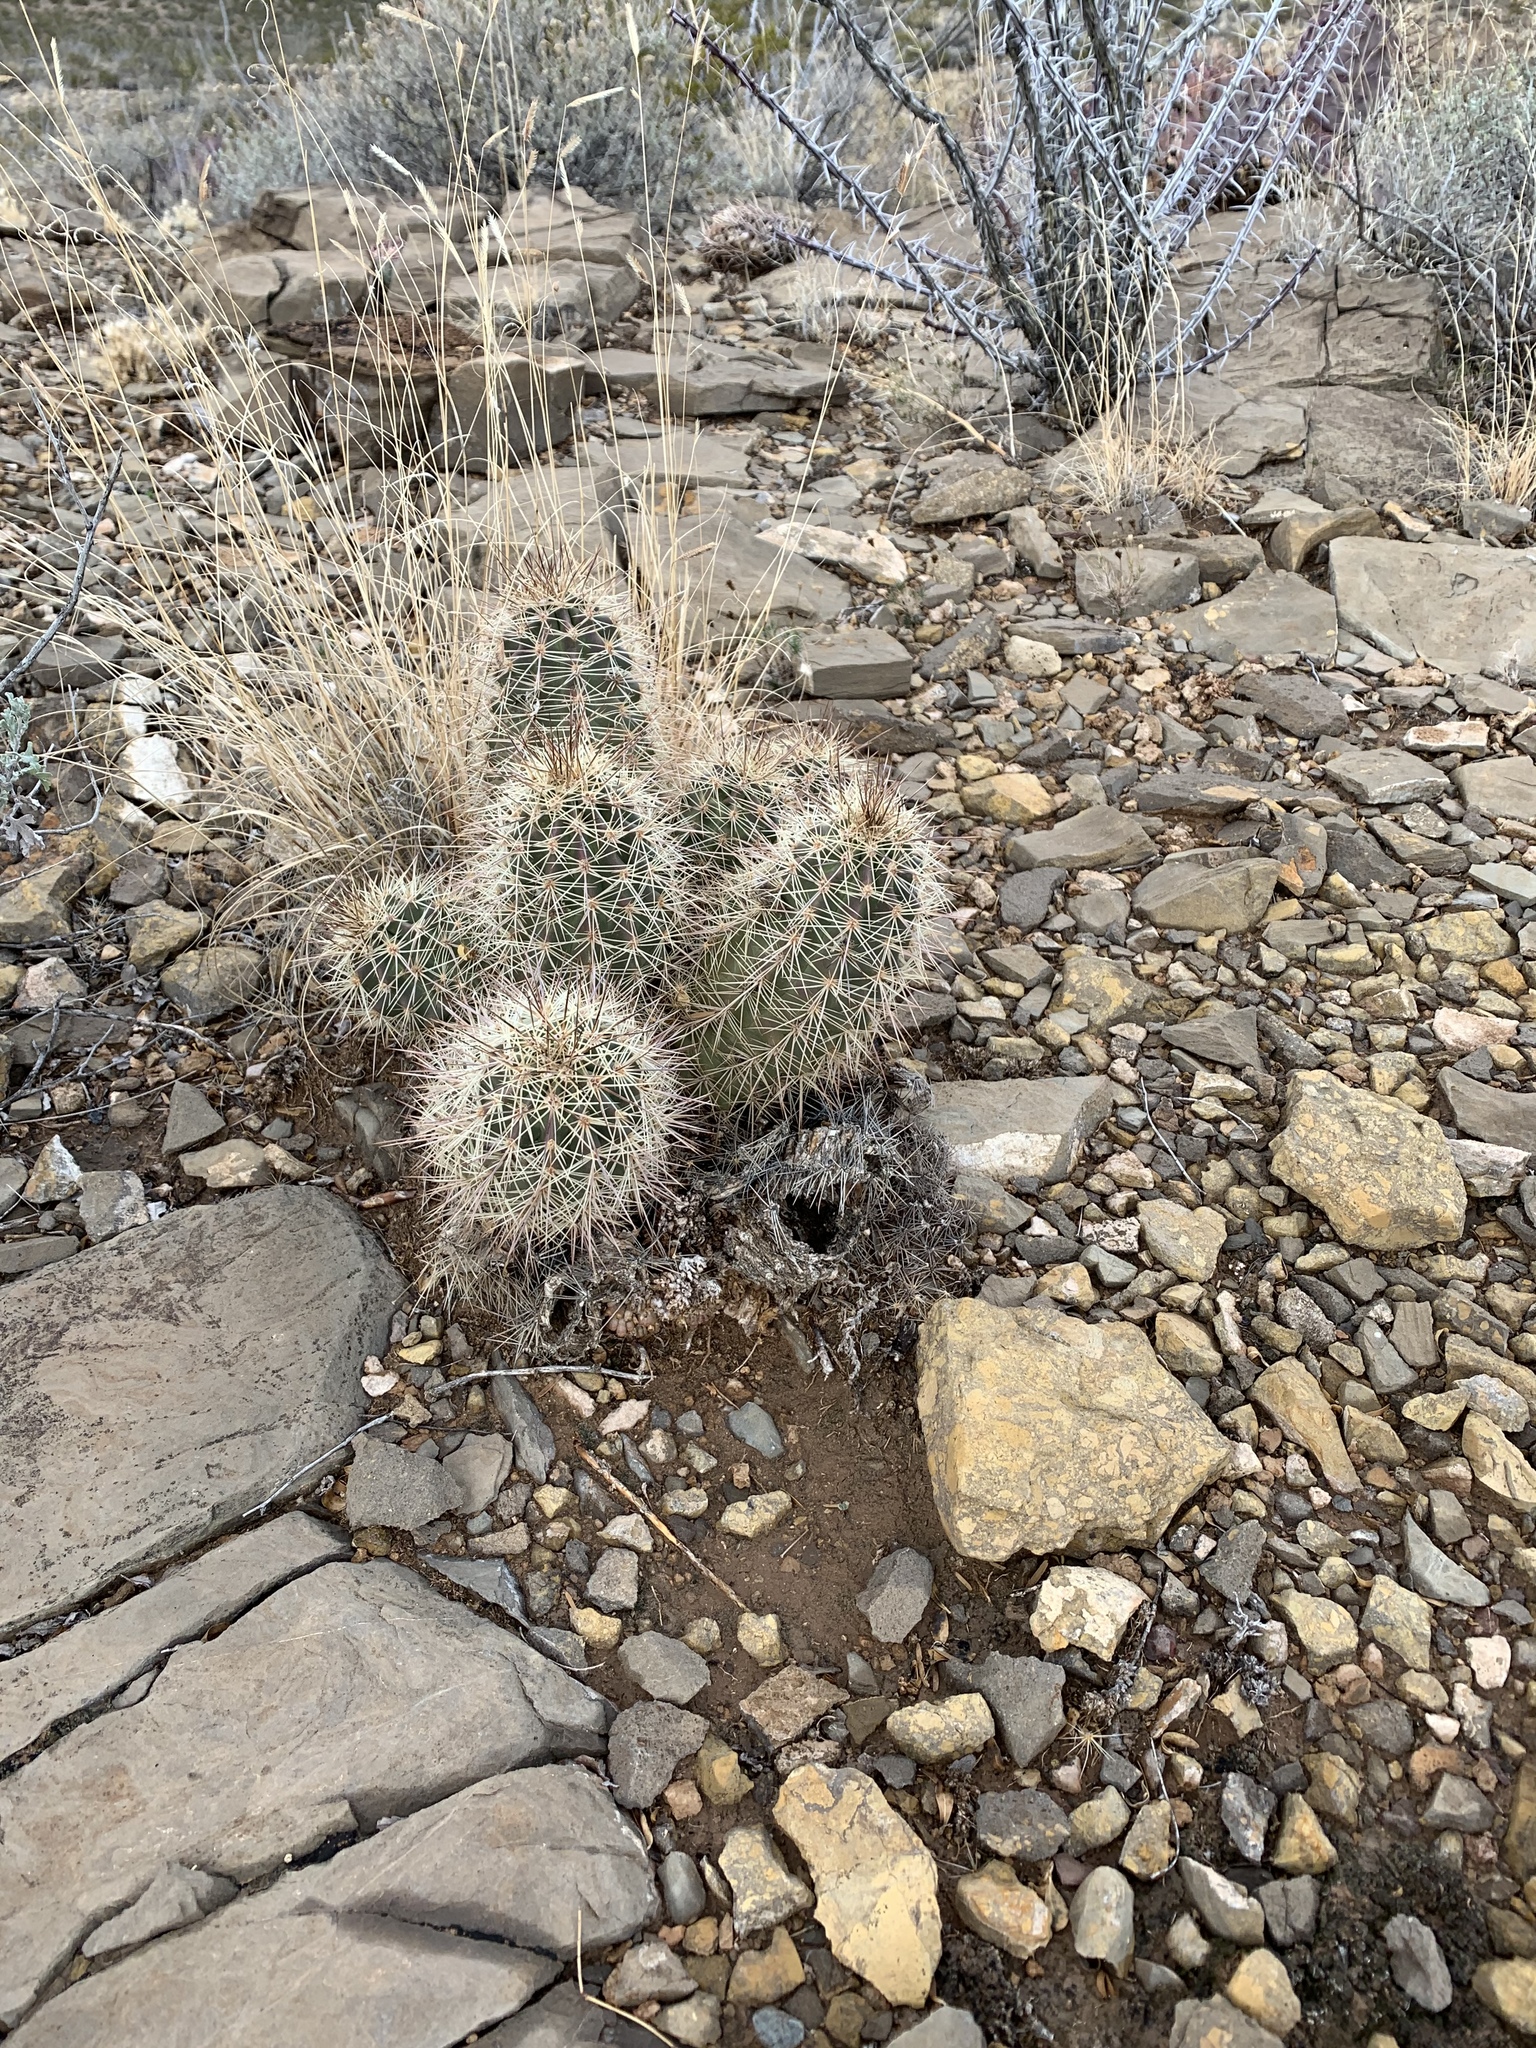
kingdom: Plantae
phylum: Tracheophyta
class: Magnoliopsida
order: Caryophyllales
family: Cactaceae
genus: Echinocereus
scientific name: Echinocereus coccineus
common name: Scarlet hedgehog cactus
